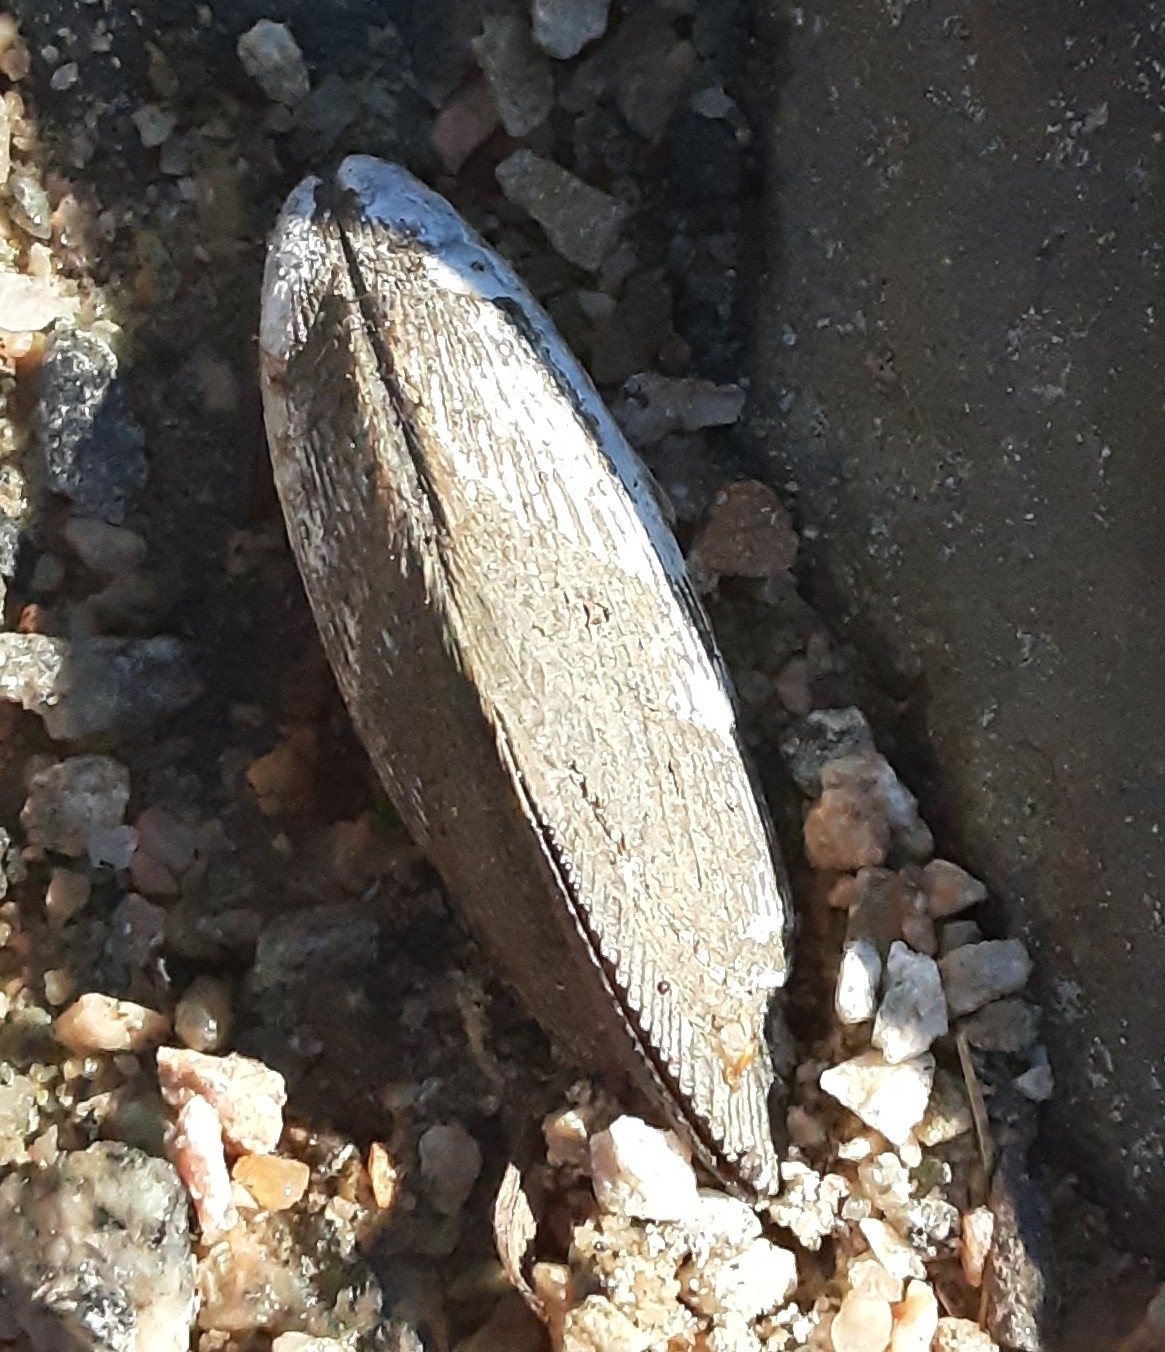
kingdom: Animalia
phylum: Mollusca
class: Bivalvia
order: Mytilida
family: Mytilidae
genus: Geukensia
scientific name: Geukensia demissa
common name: Ribbed mussel
